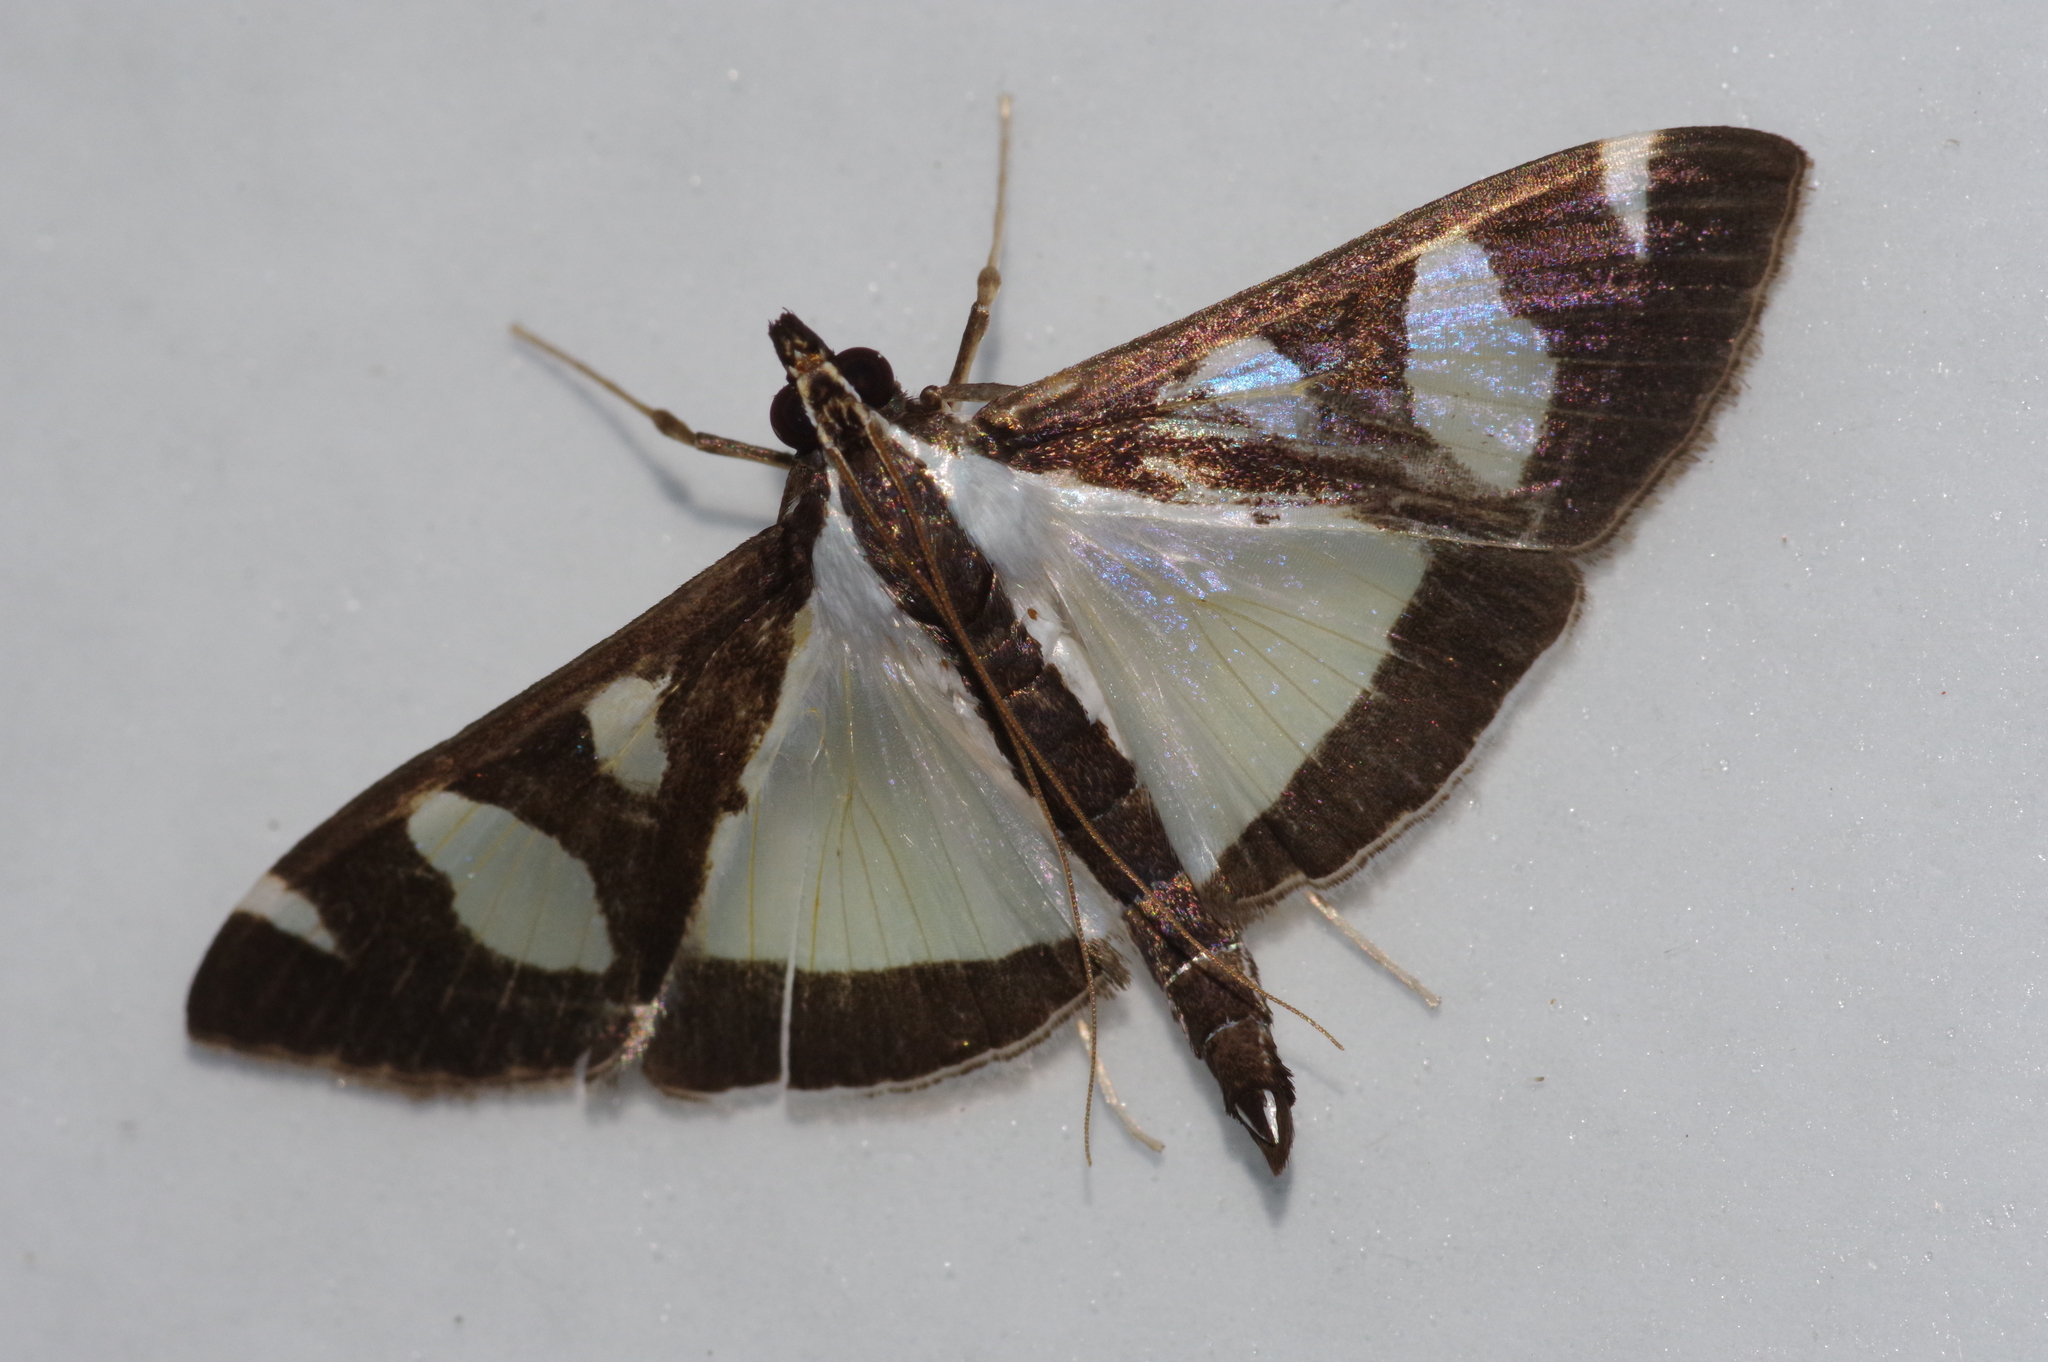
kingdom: Animalia
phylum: Arthropoda
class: Insecta
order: Lepidoptera
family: Crambidae
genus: Glyphodes
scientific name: Glyphodes actorionalis
